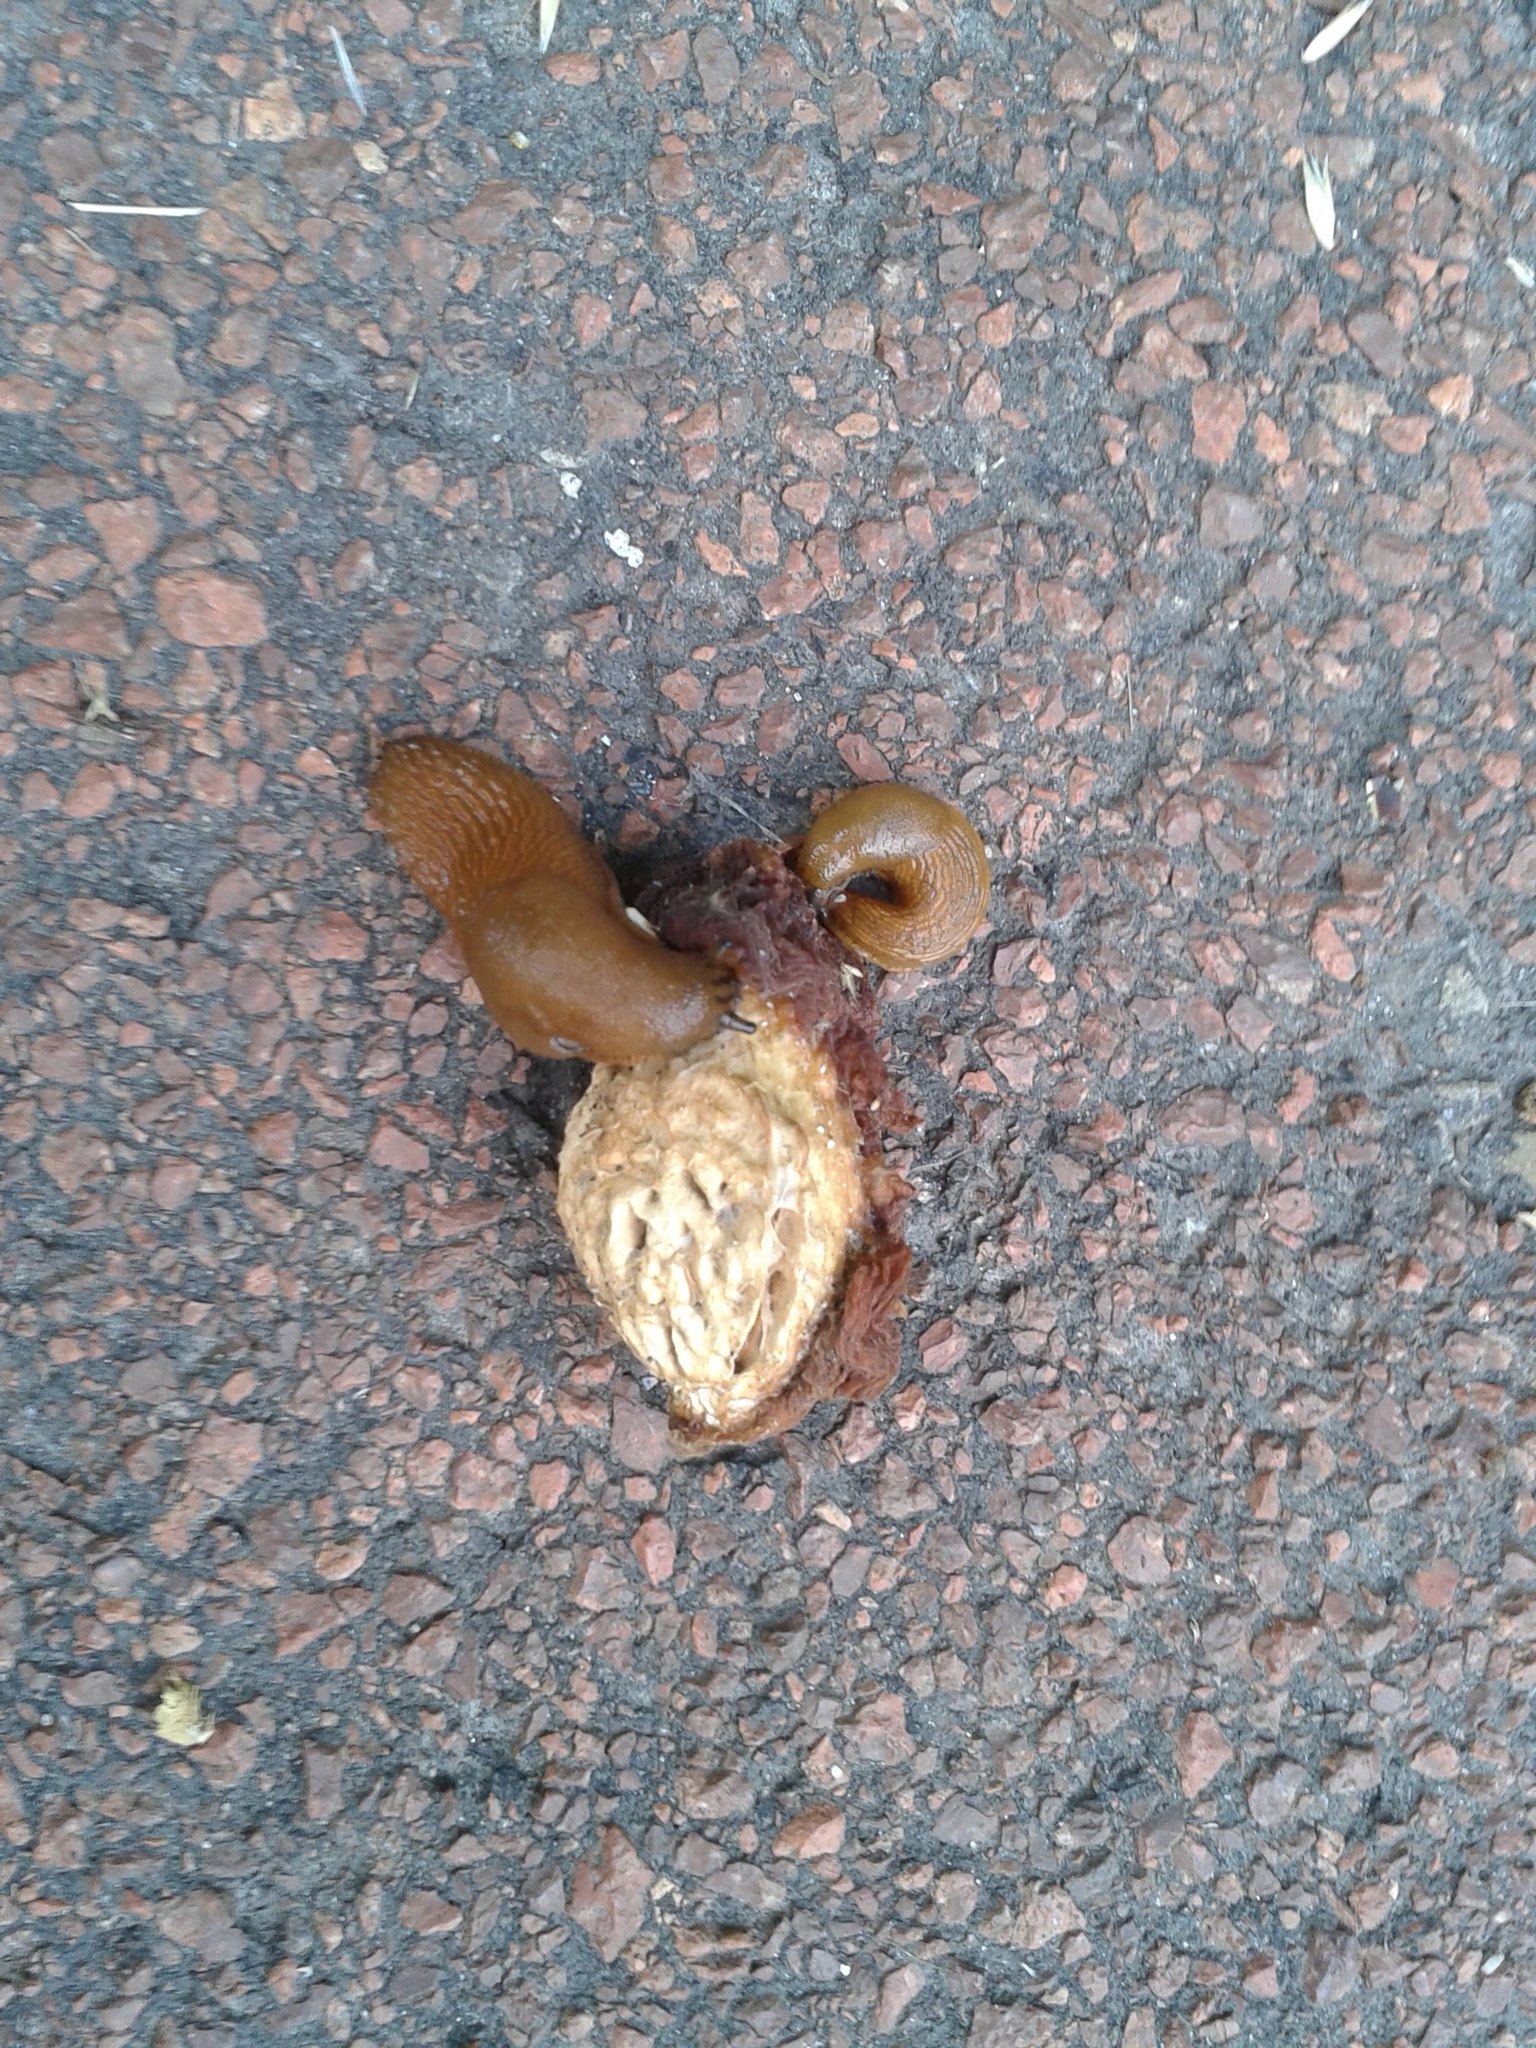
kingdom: Animalia
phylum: Mollusca
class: Gastropoda
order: Stylommatophora
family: Arionidae
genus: Arion
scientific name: Arion rufus
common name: Chocolate arion
